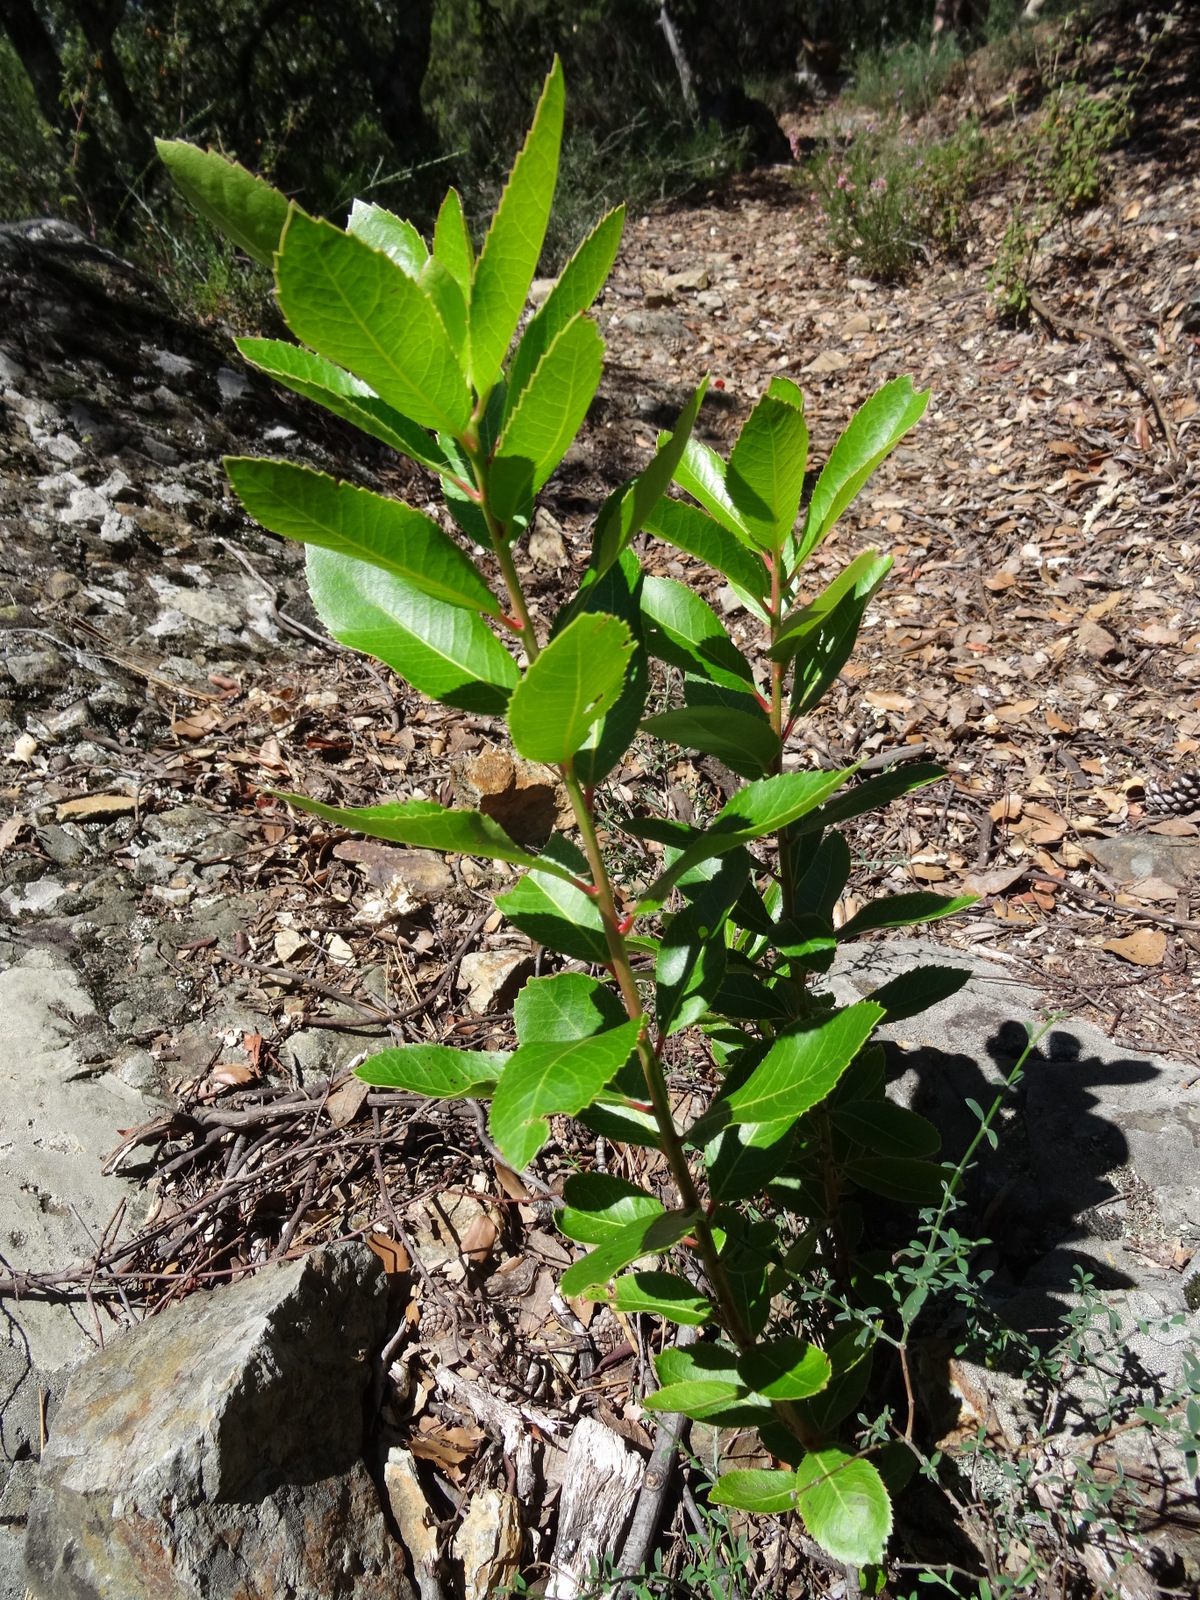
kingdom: Plantae
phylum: Tracheophyta
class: Magnoliopsida
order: Ericales
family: Ericaceae
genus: Arbutus
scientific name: Arbutus unedo
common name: Strawberry-tree
